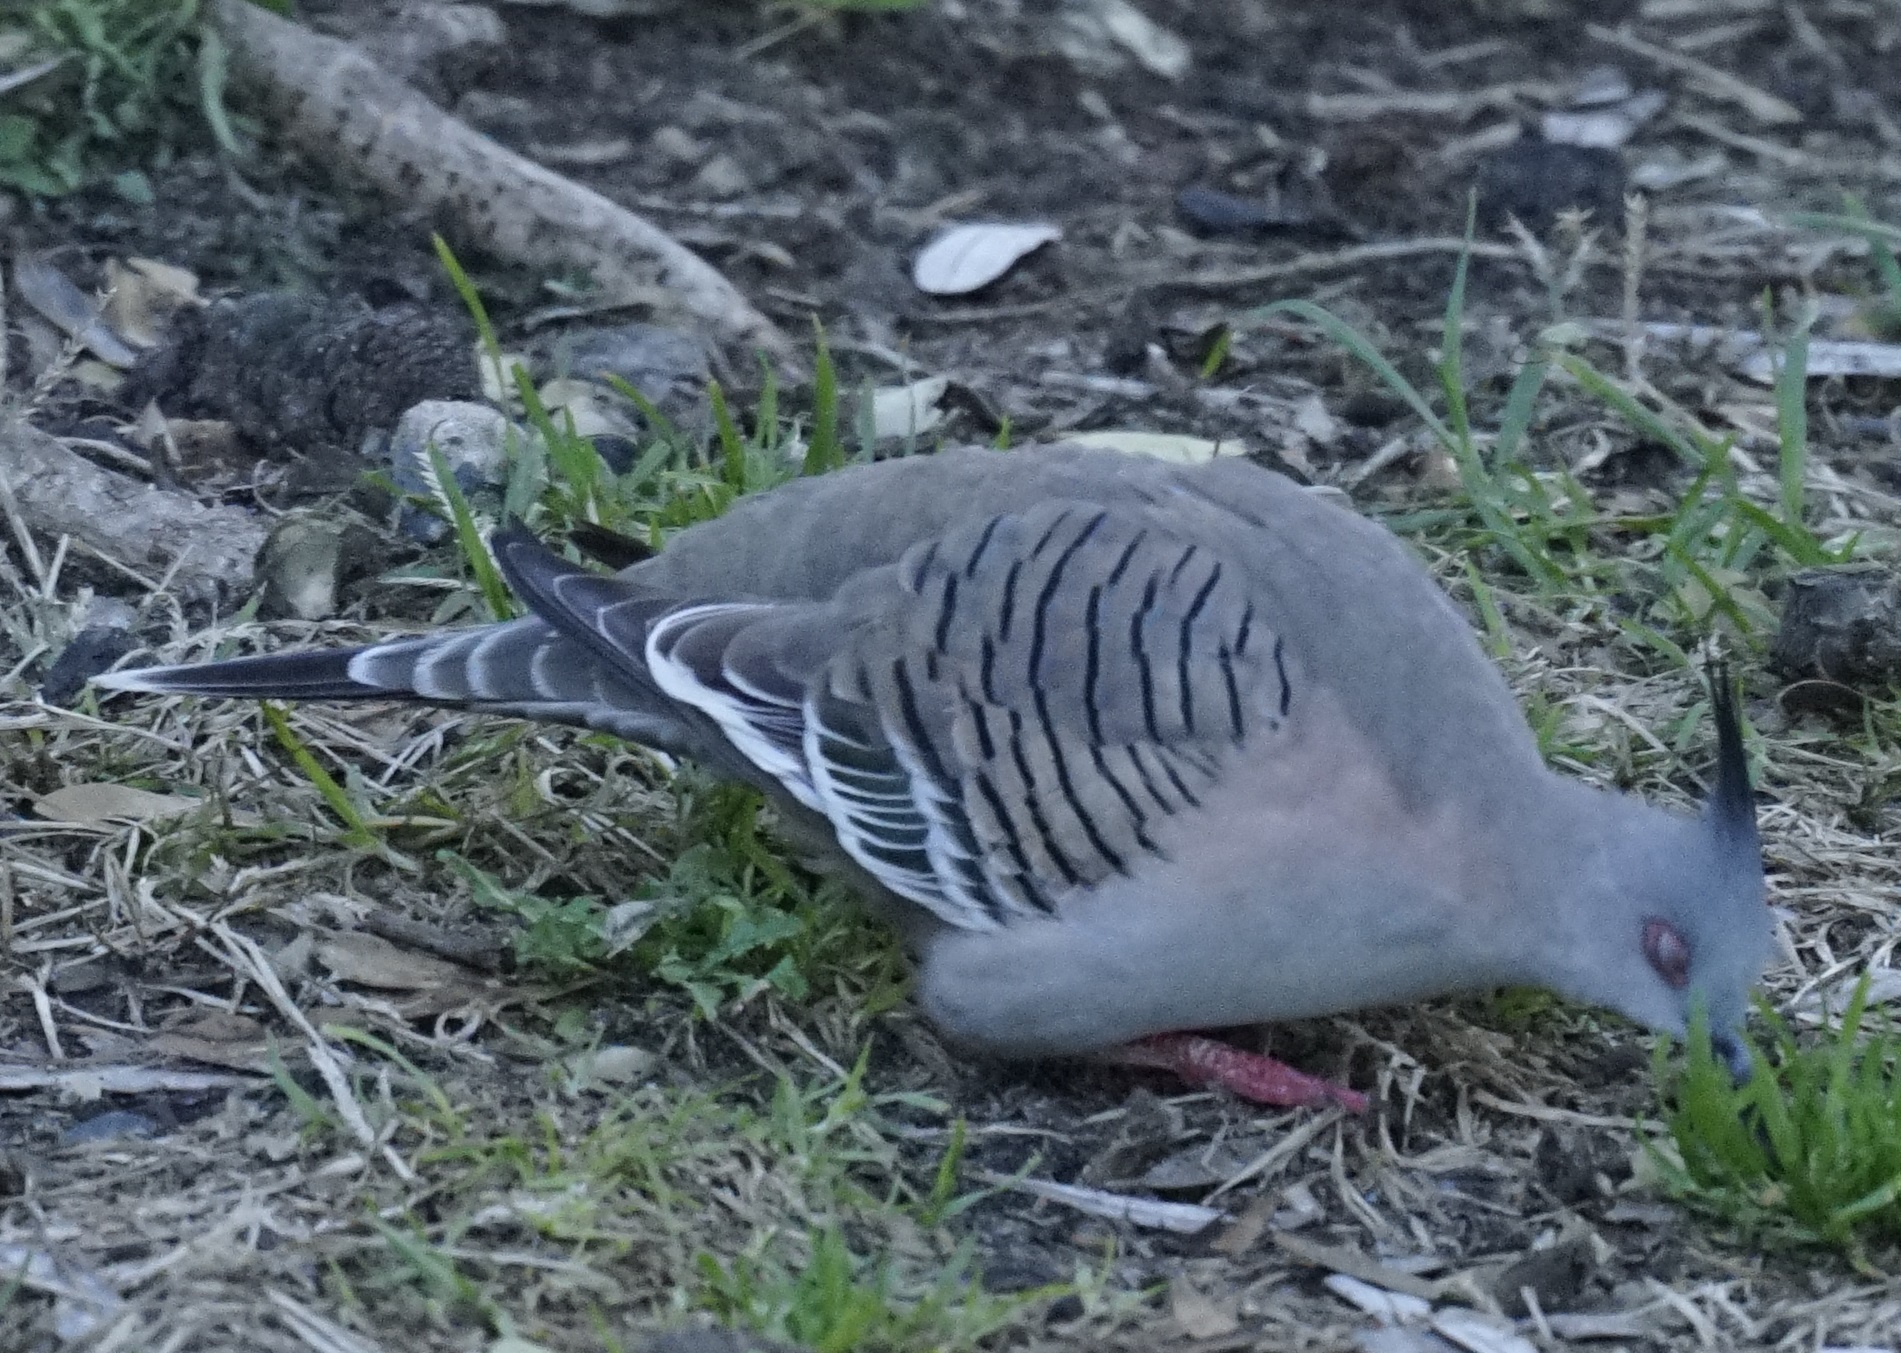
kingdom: Animalia
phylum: Chordata
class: Aves
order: Columbiformes
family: Columbidae
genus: Ocyphaps
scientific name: Ocyphaps lophotes
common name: Crested pigeon
